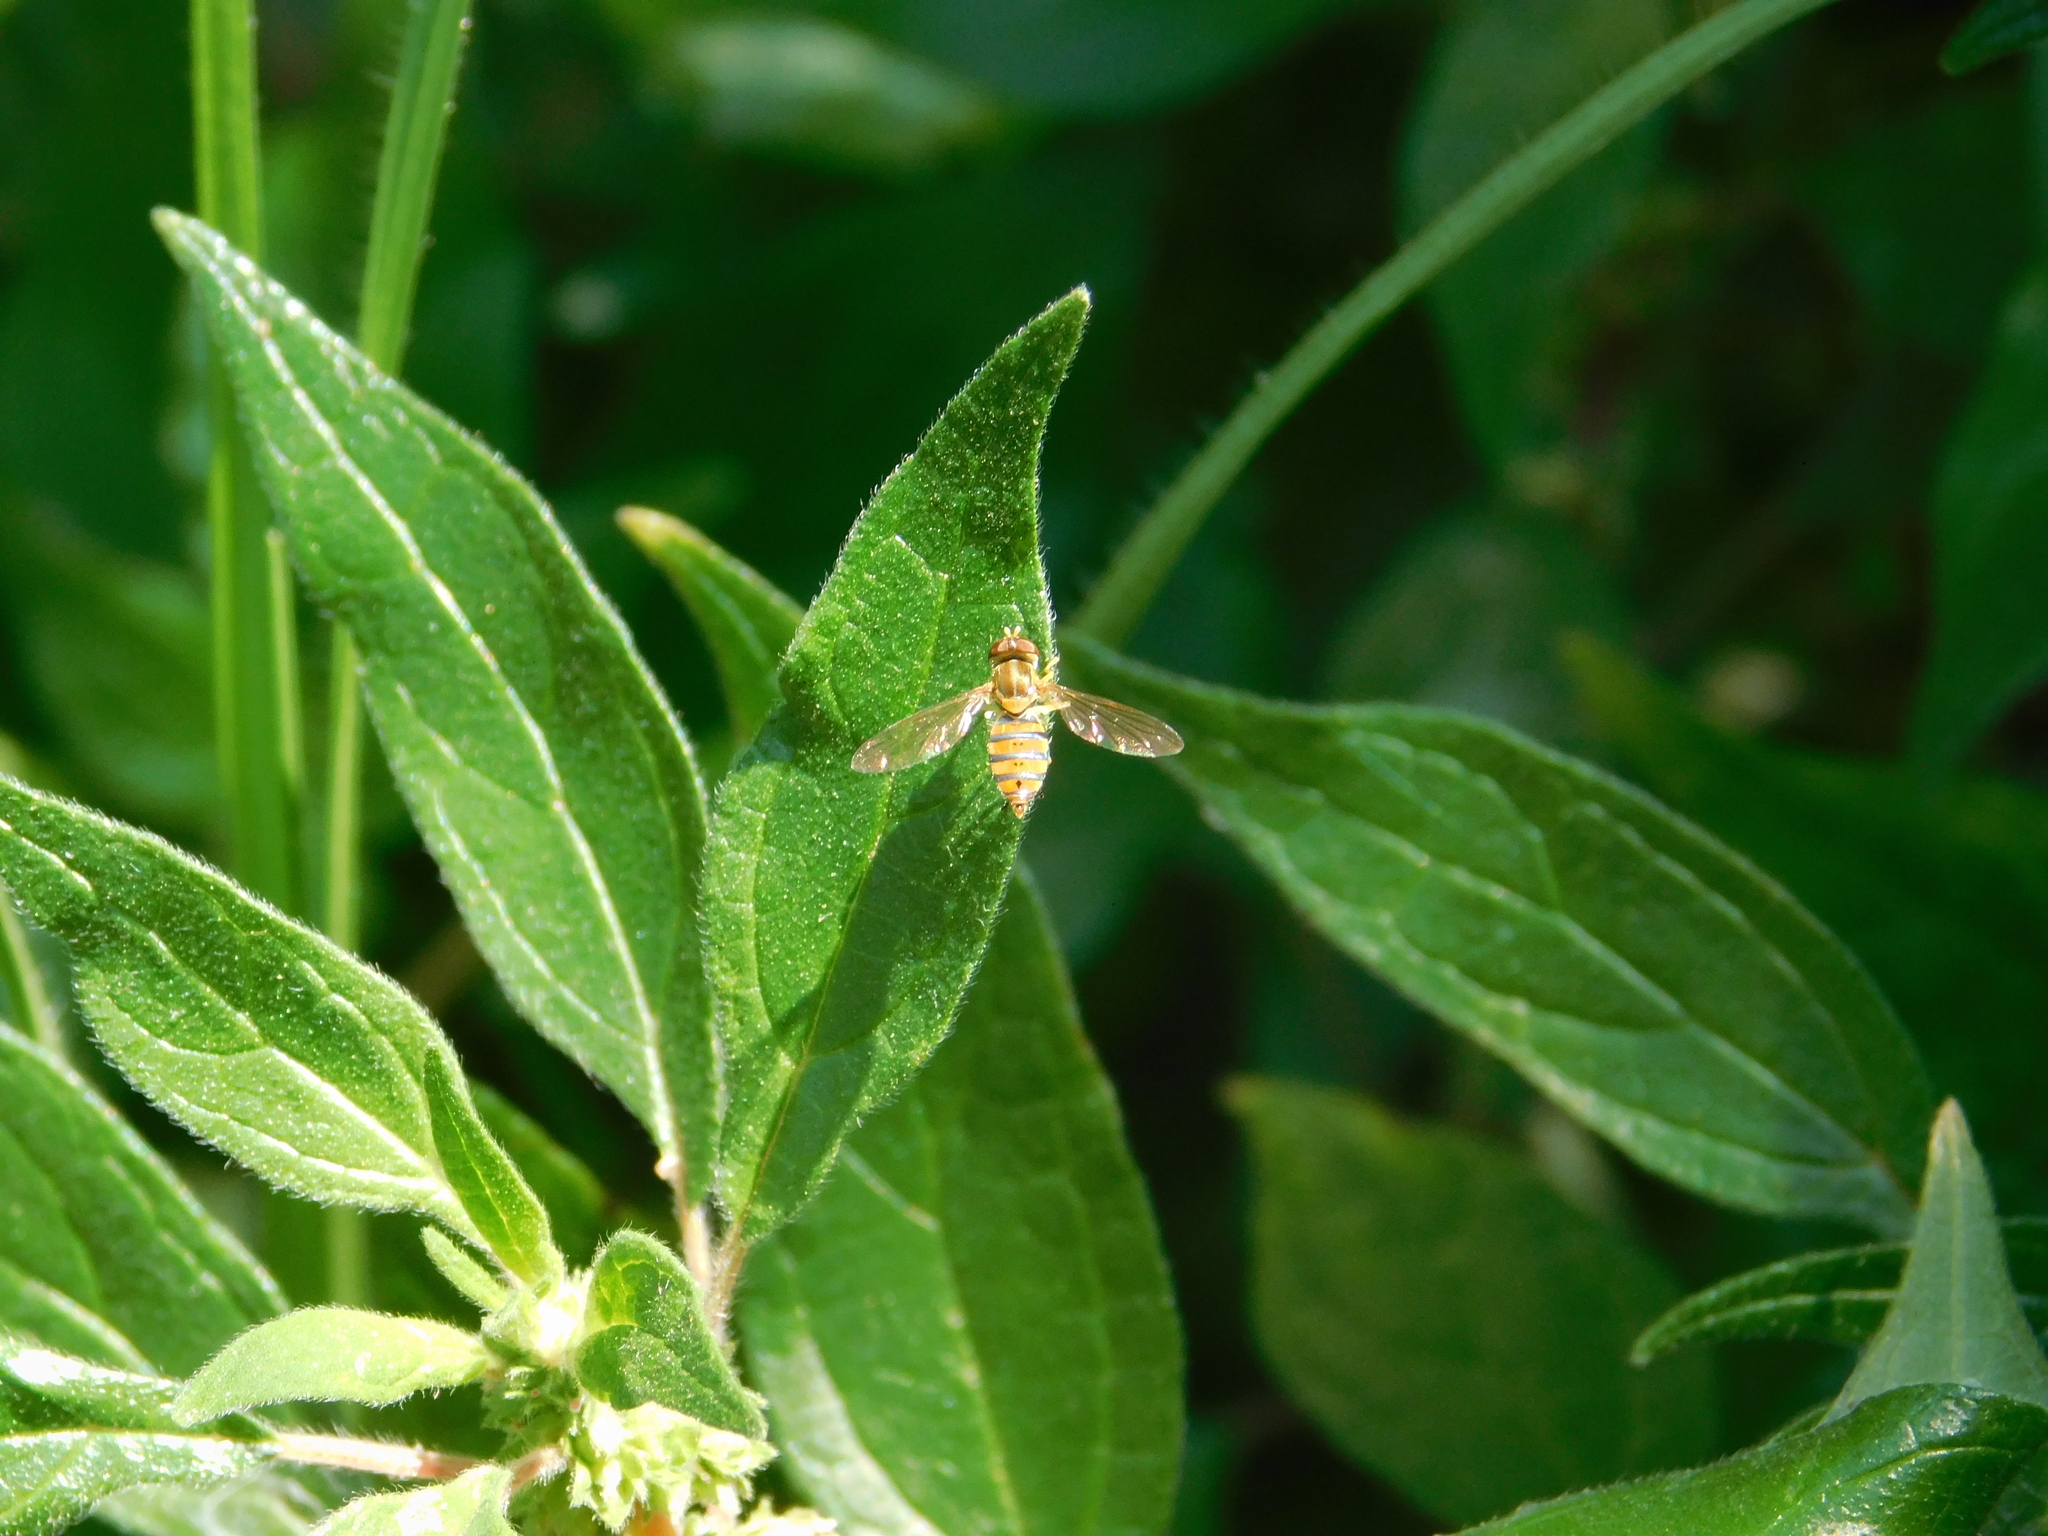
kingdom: Animalia
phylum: Arthropoda
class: Insecta
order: Diptera
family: Syrphidae
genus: Toxomerus
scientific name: Toxomerus
